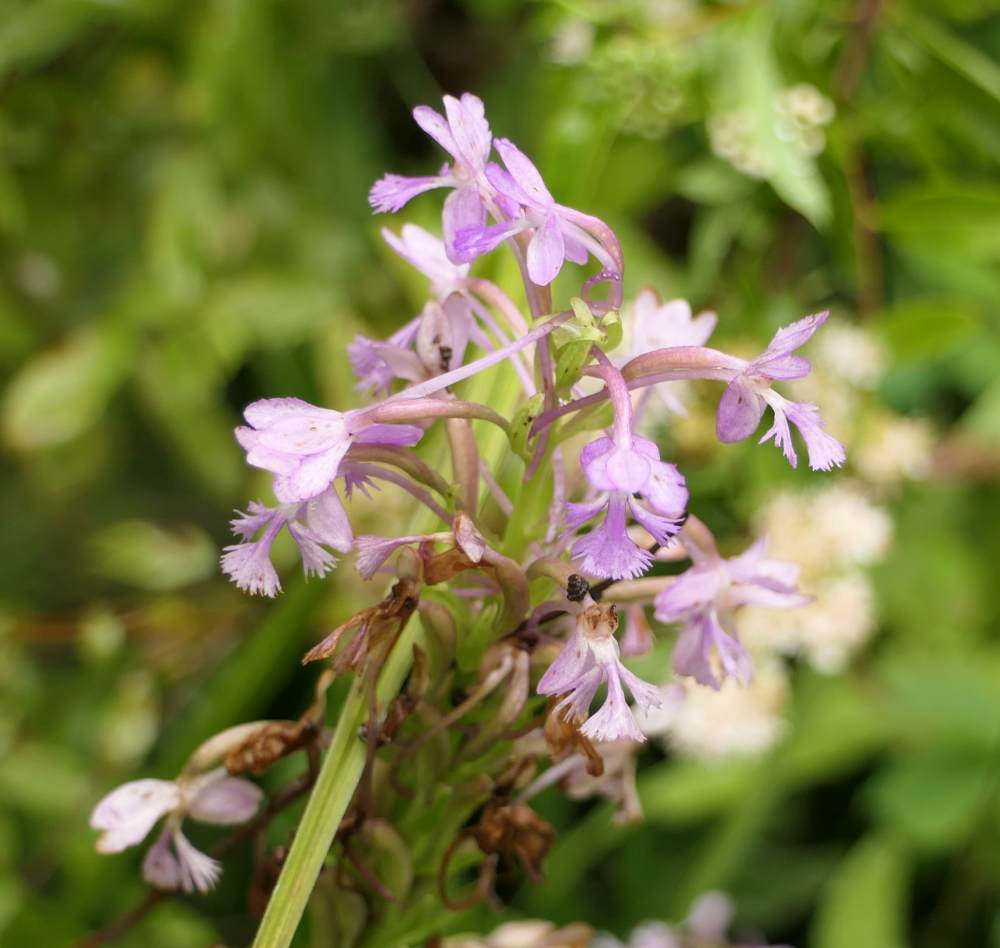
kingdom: Plantae
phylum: Tracheophyta
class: Liliopsida
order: Asparagales
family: Orchidaceae
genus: Platanthera
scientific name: Platanthera psycodes
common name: Lesser purple fringed orchid
